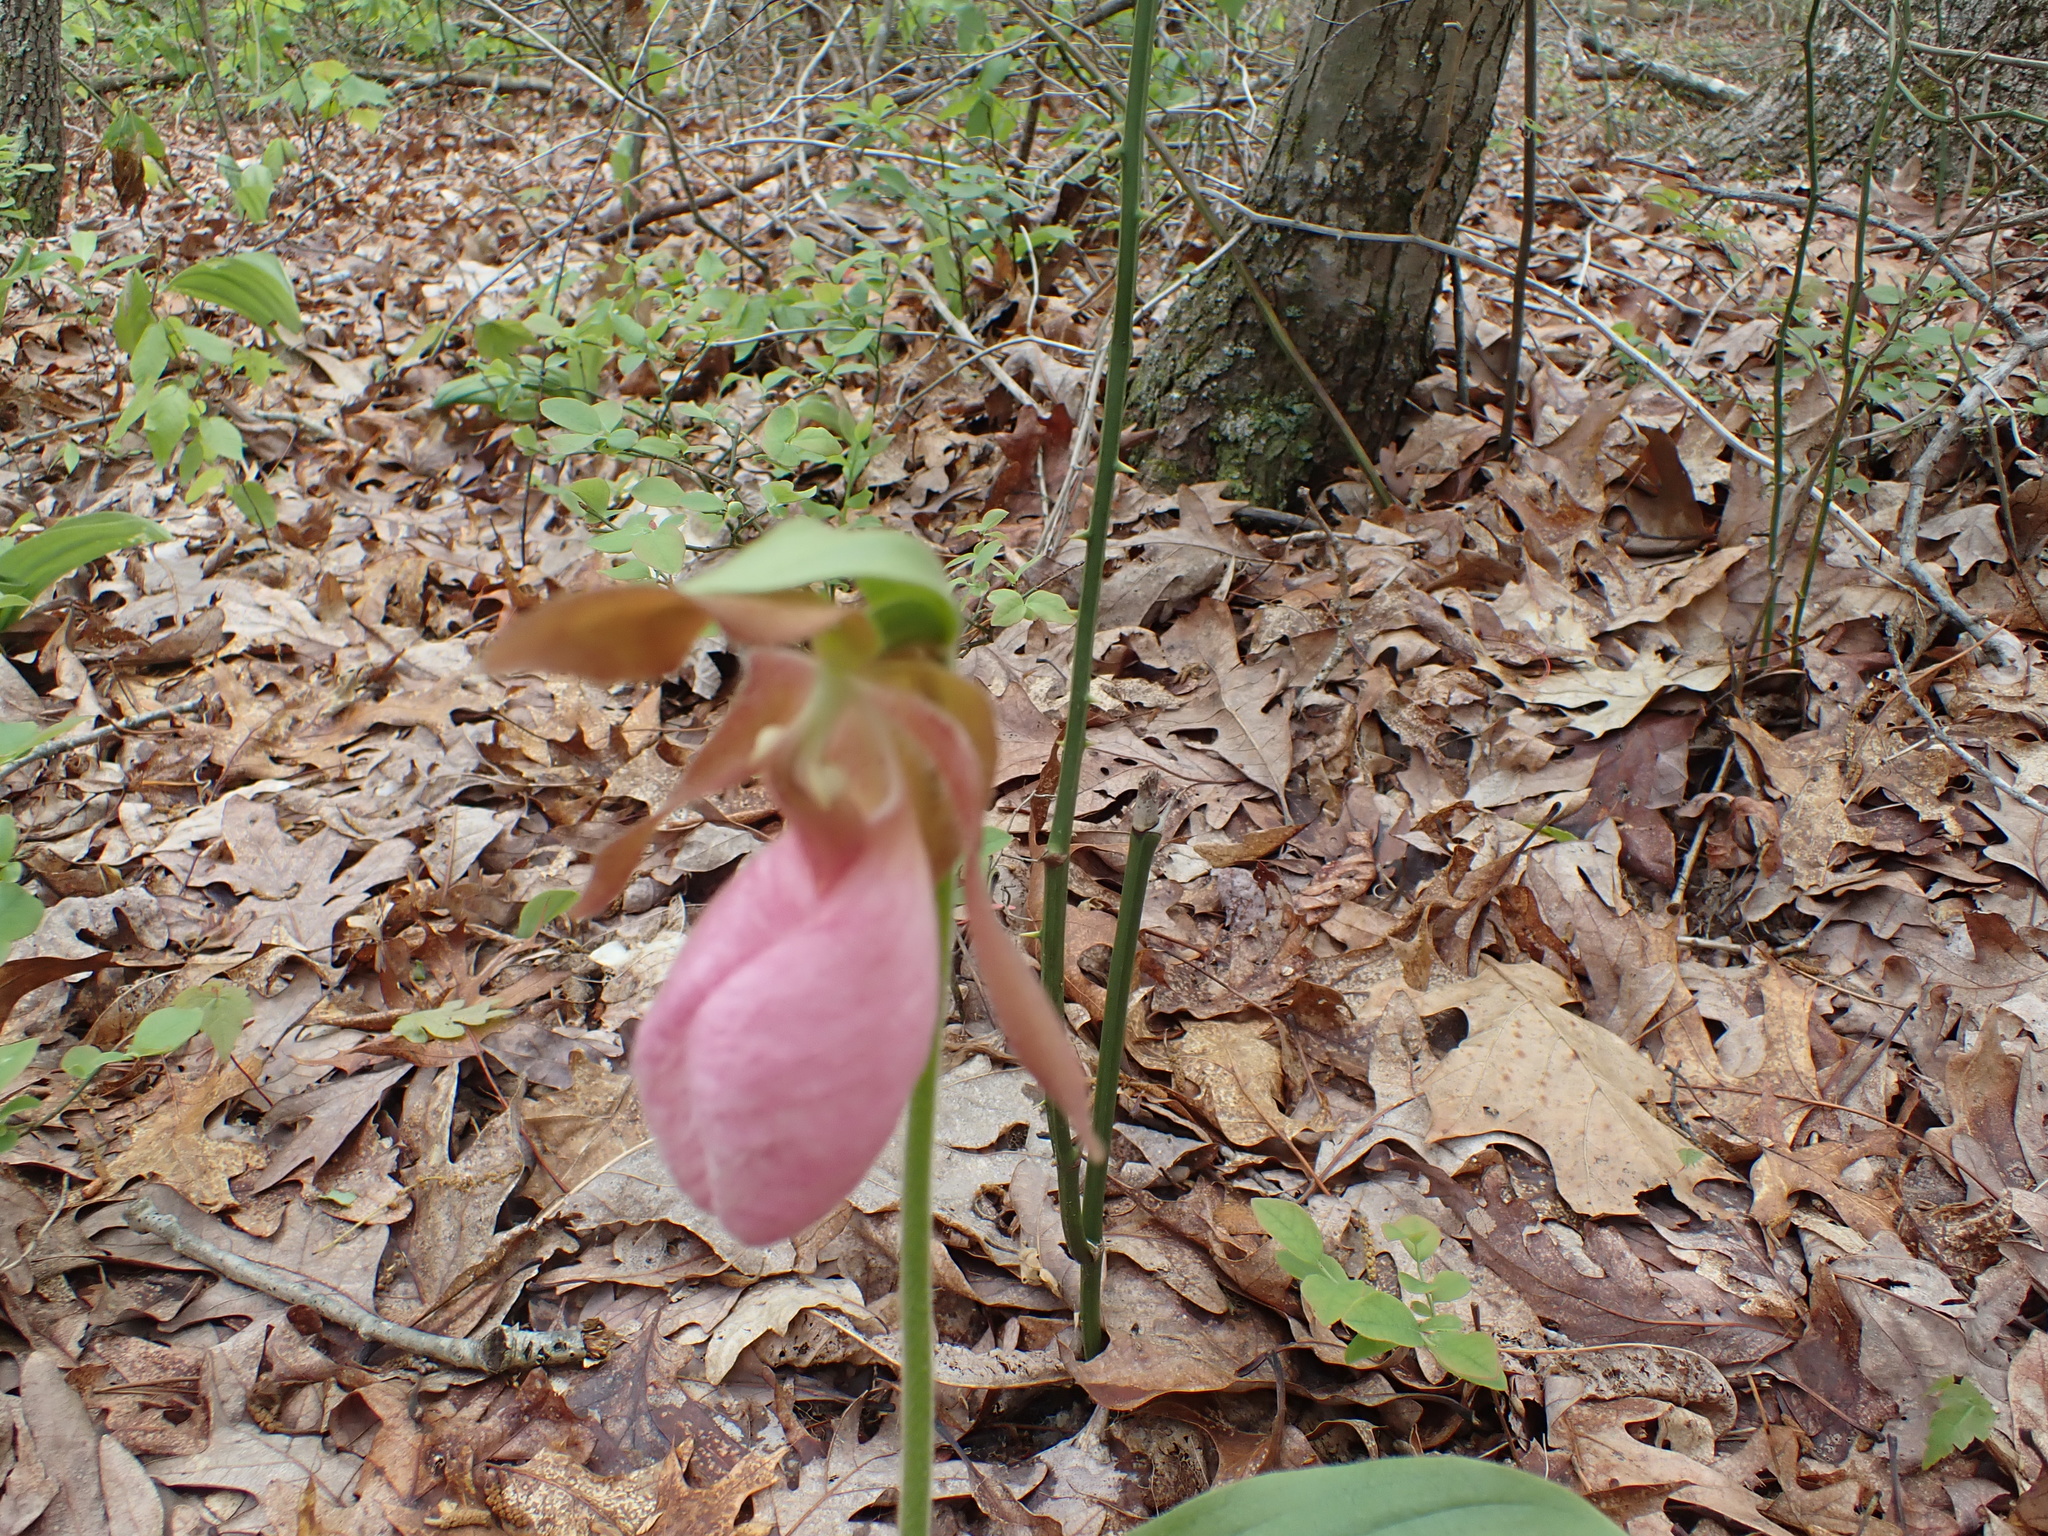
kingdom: Plantae
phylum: Tracheophyta
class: Liliopsida
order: Asparagales
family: Orchidaceae
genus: Cypripedium
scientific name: Cypripedium acaule
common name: Pink lady's-slipper
